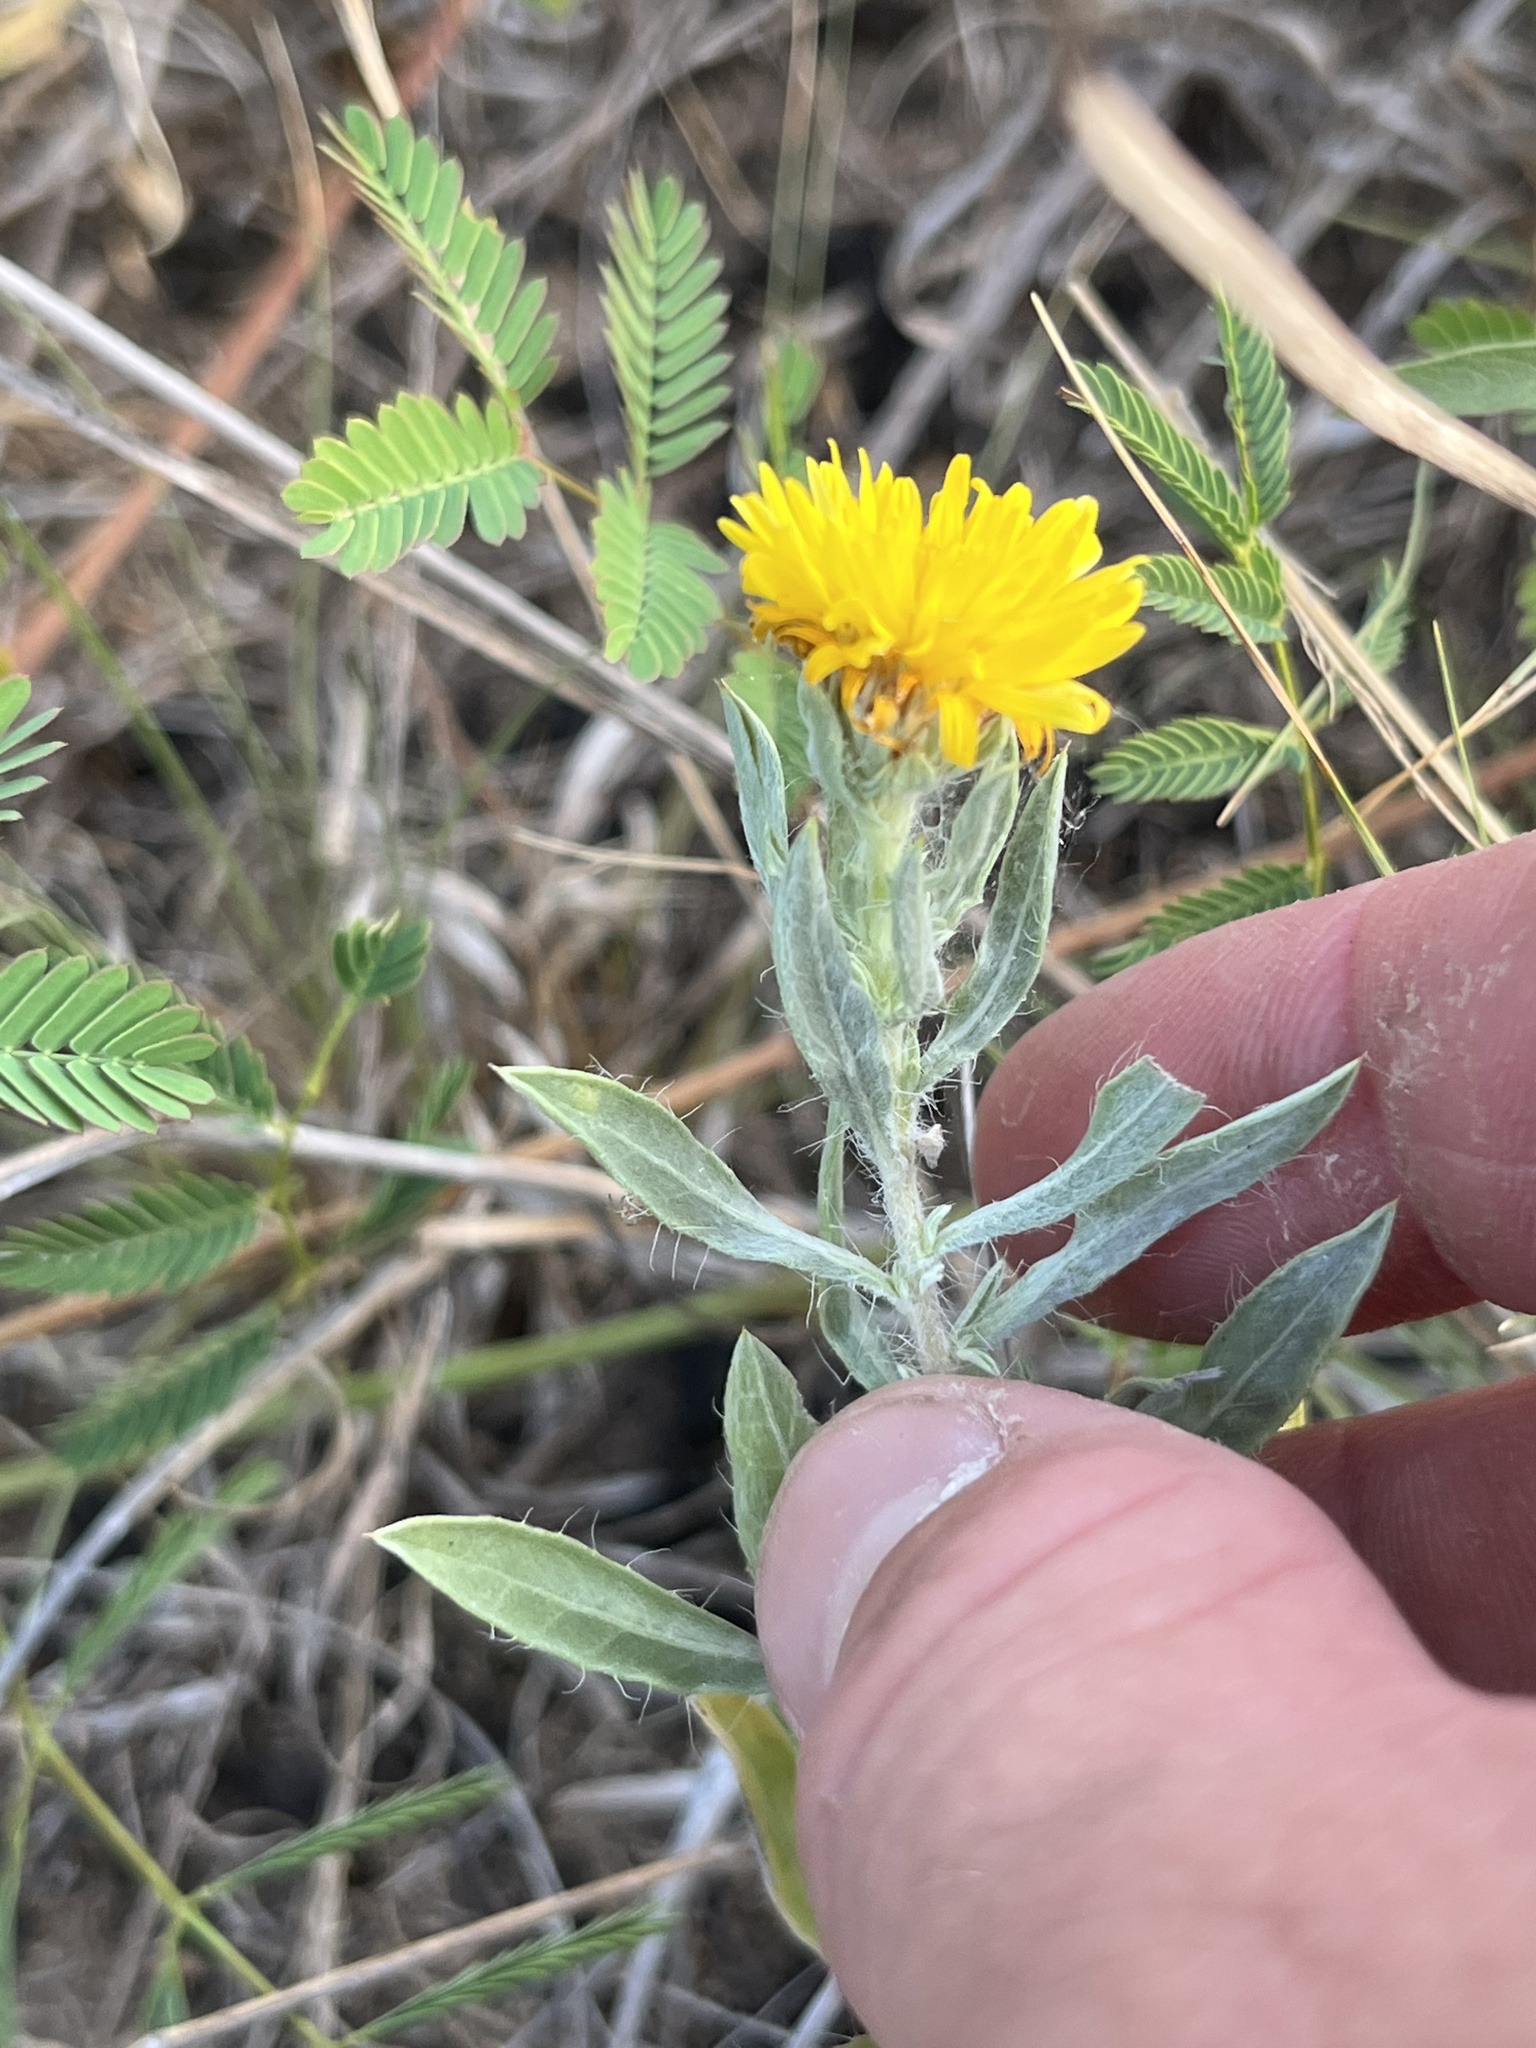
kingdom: Plantae
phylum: Tracheophyta
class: Magnoliopsida
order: Asterales
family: Asteraceae
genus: Heterotheca
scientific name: Heterotheca canescens
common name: Hoary golden-aster
